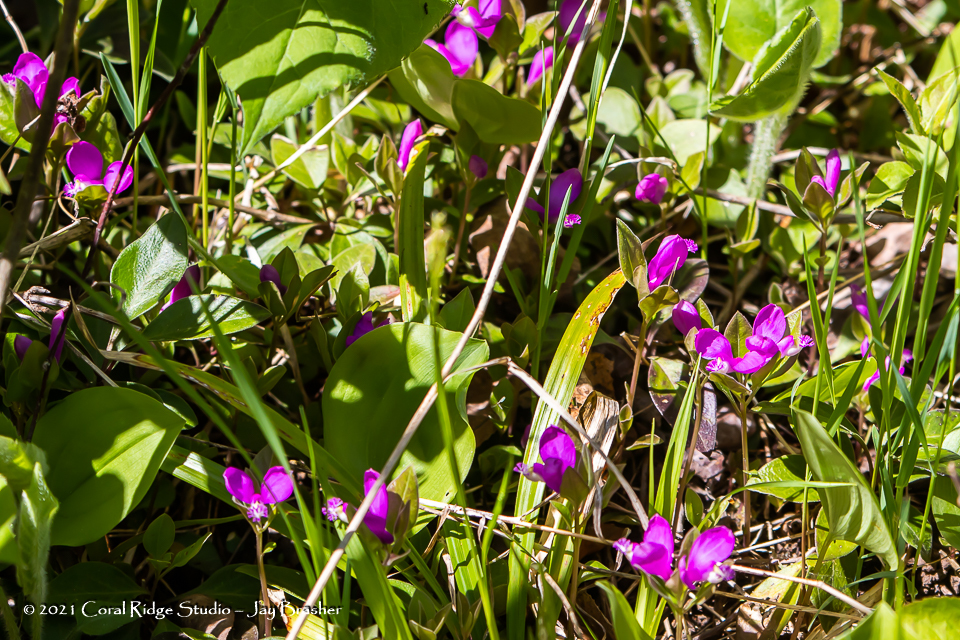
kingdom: Plantae
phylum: Tracheophyta
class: Magnoliopsida
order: Fabales
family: Polygalaceae
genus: Polygaloides
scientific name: Polygaloides paucifolia
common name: Bird-on-the-wing
